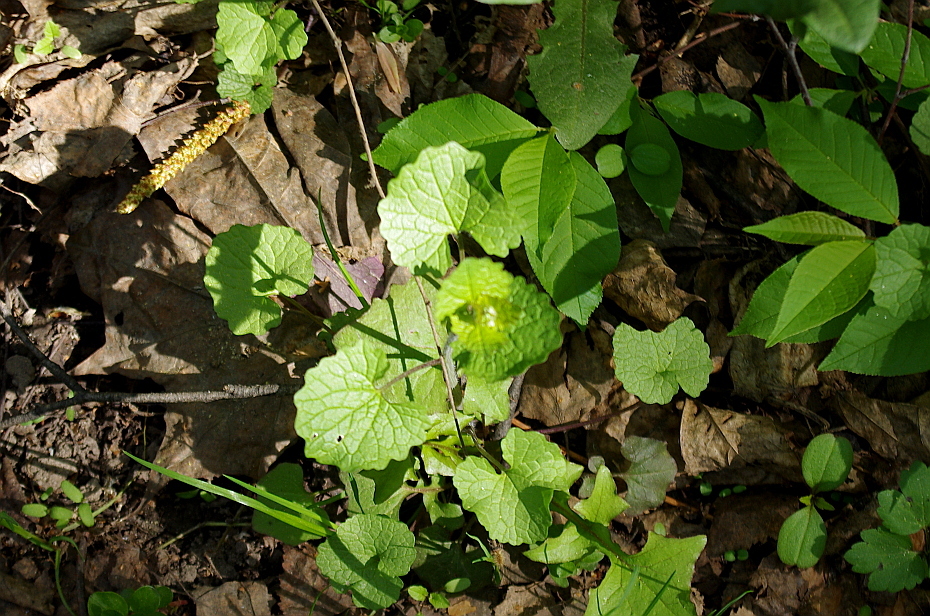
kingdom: Plantae
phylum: Tracheophyta
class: Magnoliopsida
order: Brassicales
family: Brassicaceae
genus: Alliaria
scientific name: Alliaria petiolata
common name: Garlic mustard
